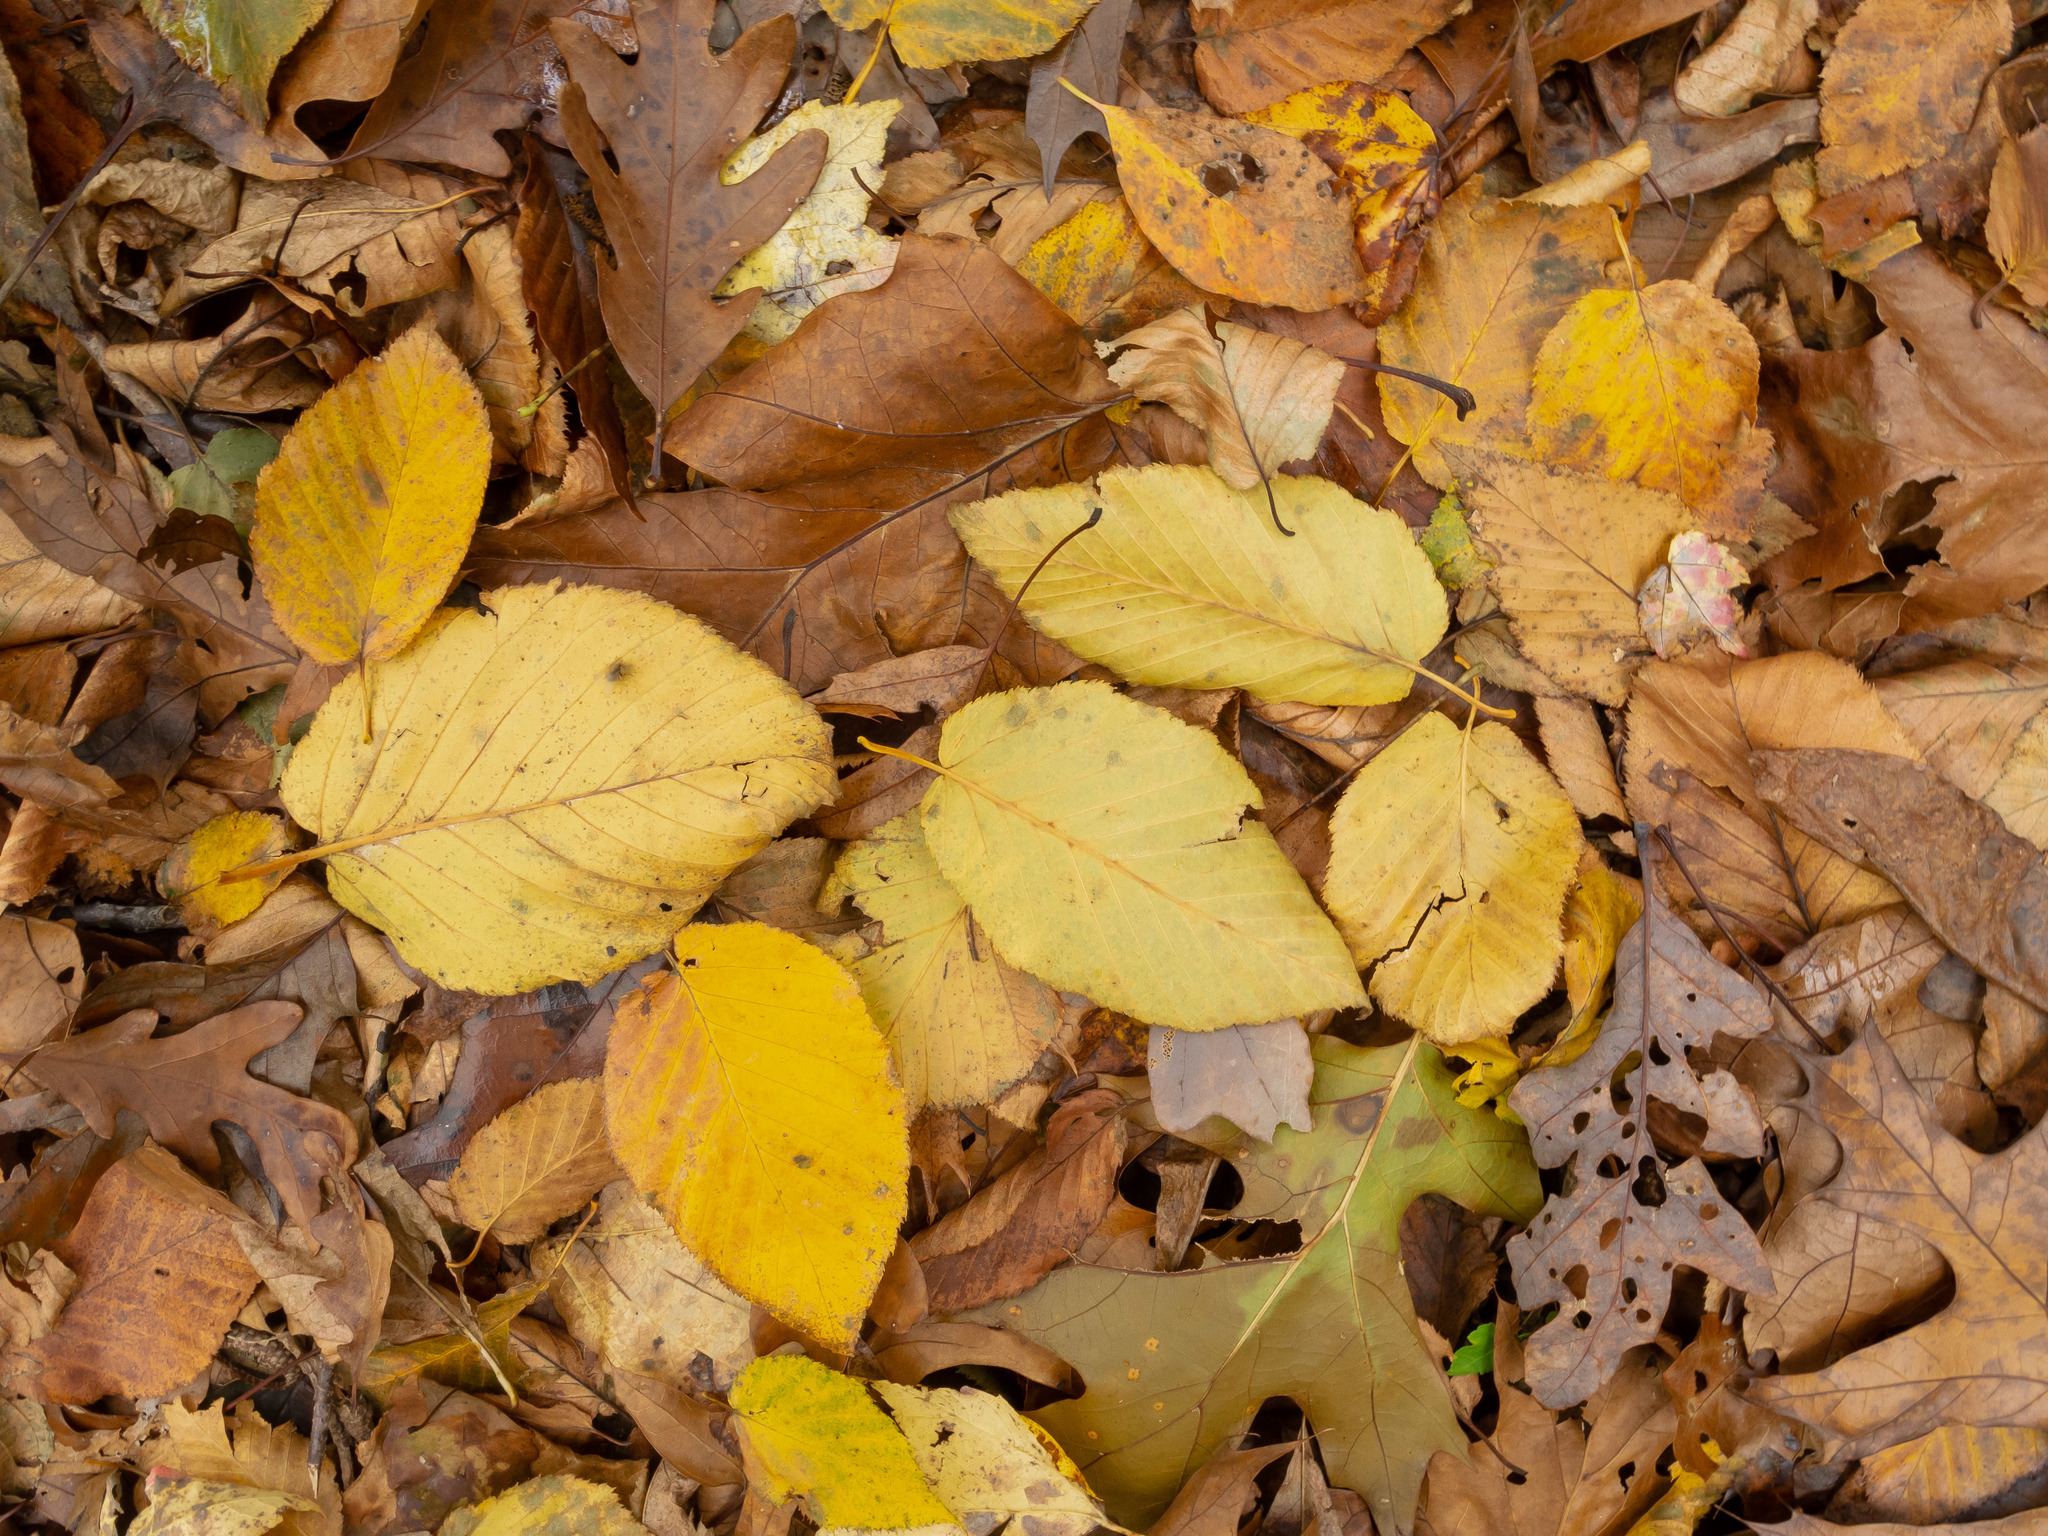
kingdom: Plantae
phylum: Tracheophyta
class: Magnoliopsida
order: Fagales
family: Betulaceae
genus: Betula
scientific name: Betula lenta
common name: Black birch
